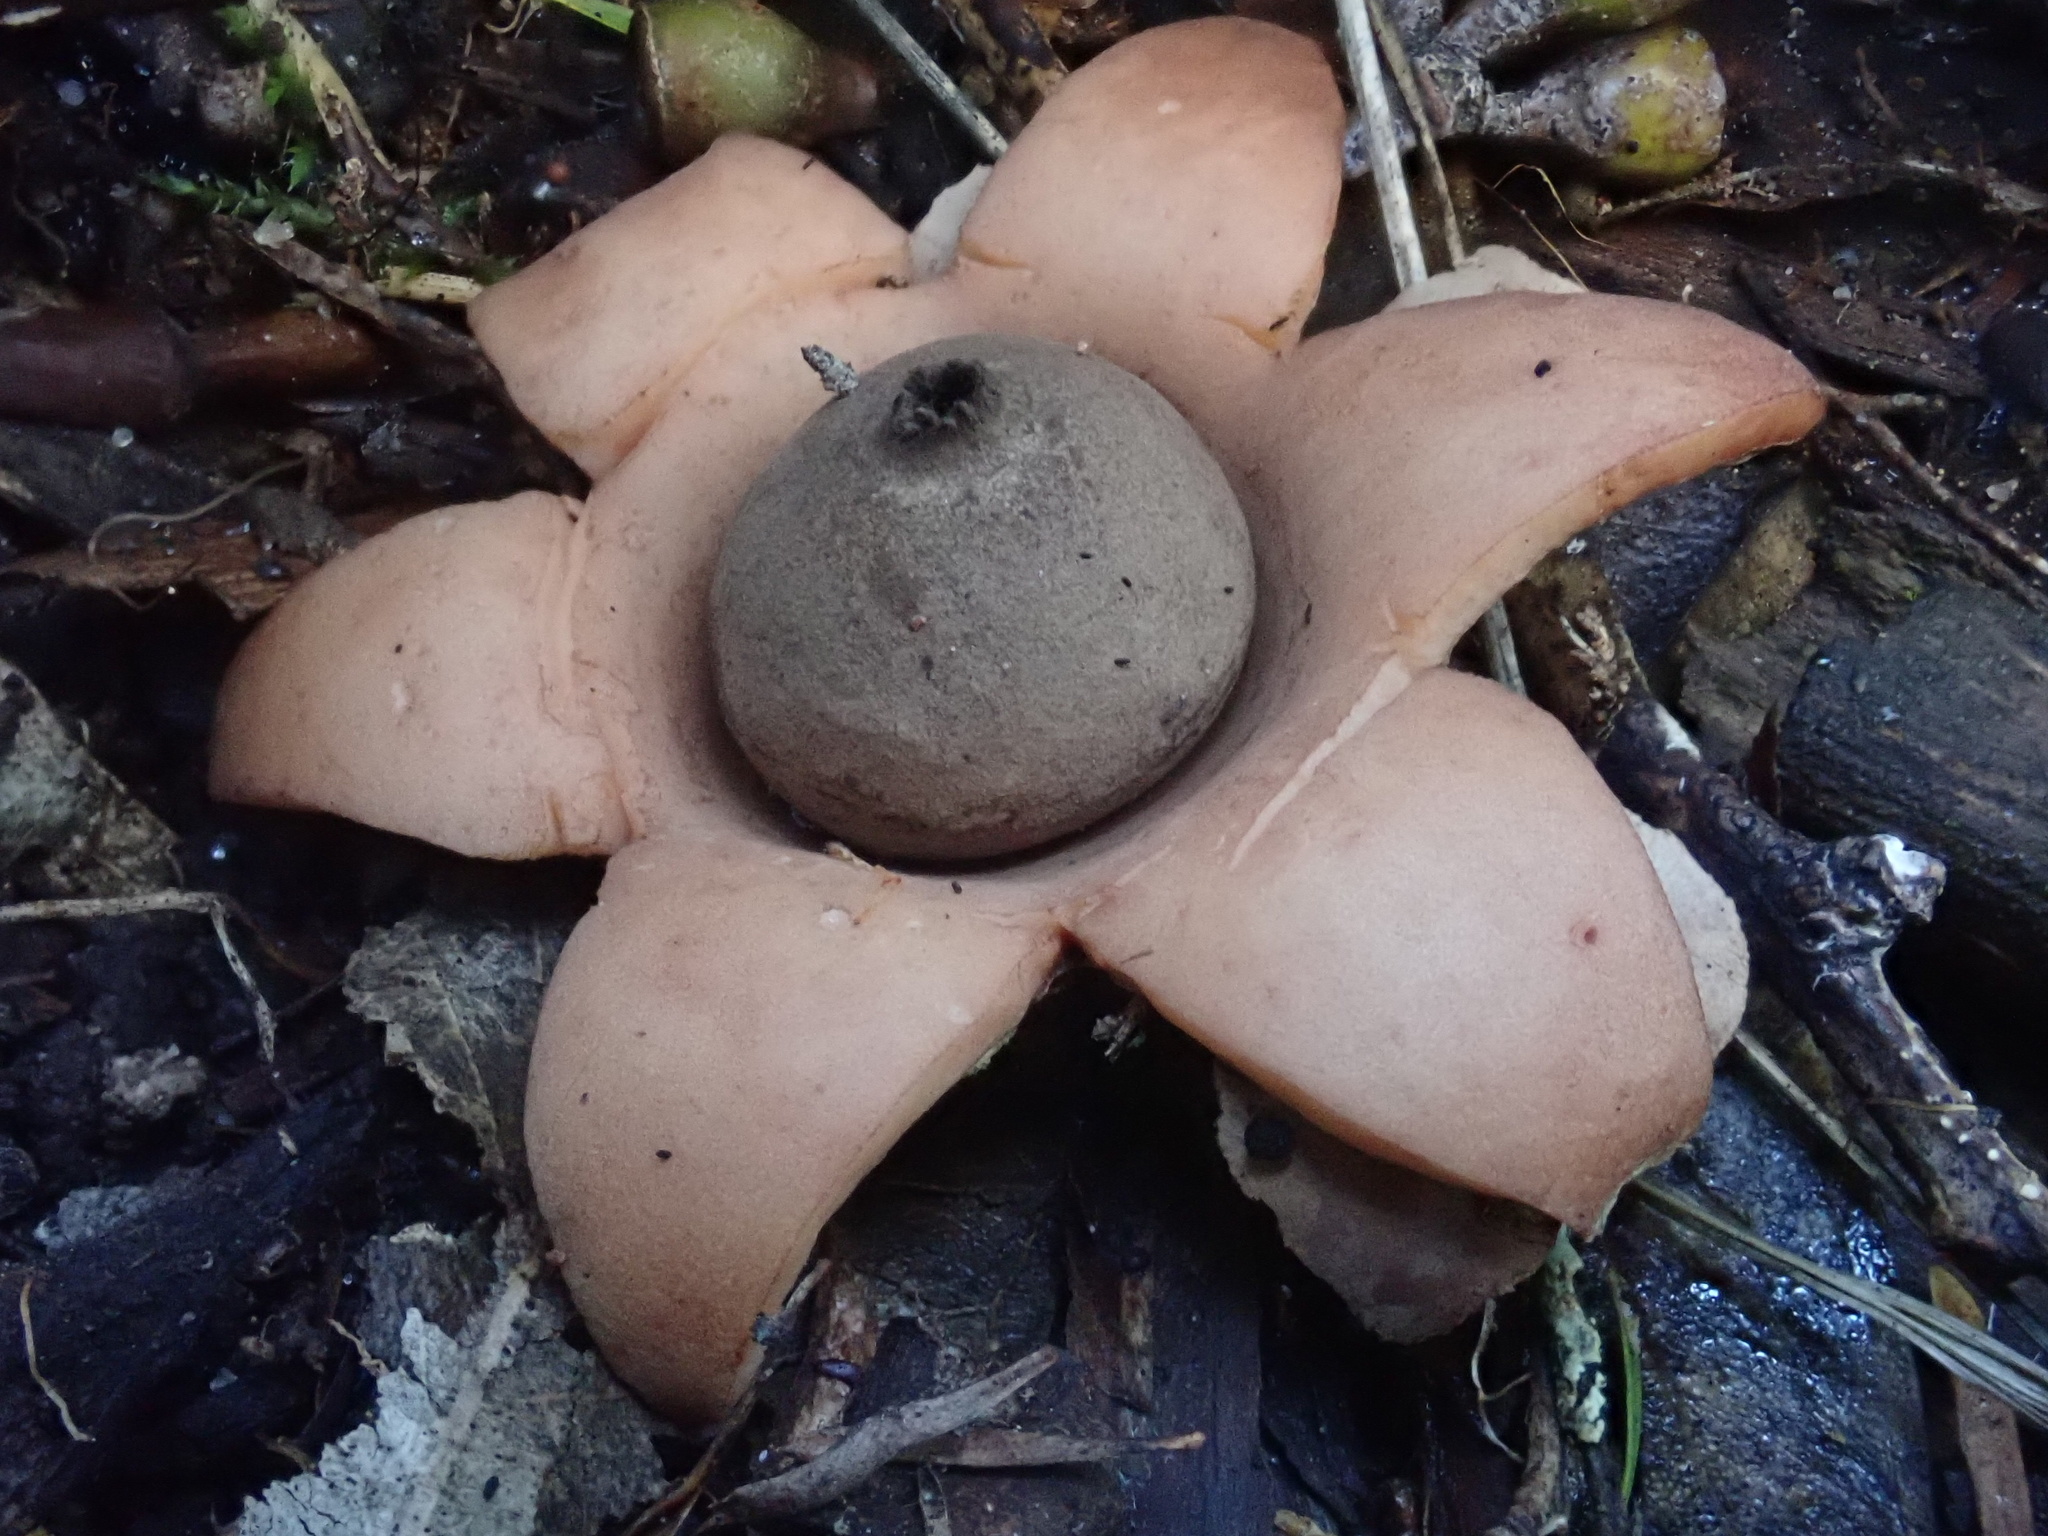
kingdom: Fungi
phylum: Basidiomycota
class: Agaricomycetes
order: Geastrales
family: Geastraceae
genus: Geastrum
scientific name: Geastrum triplex
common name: Collared earthstar
